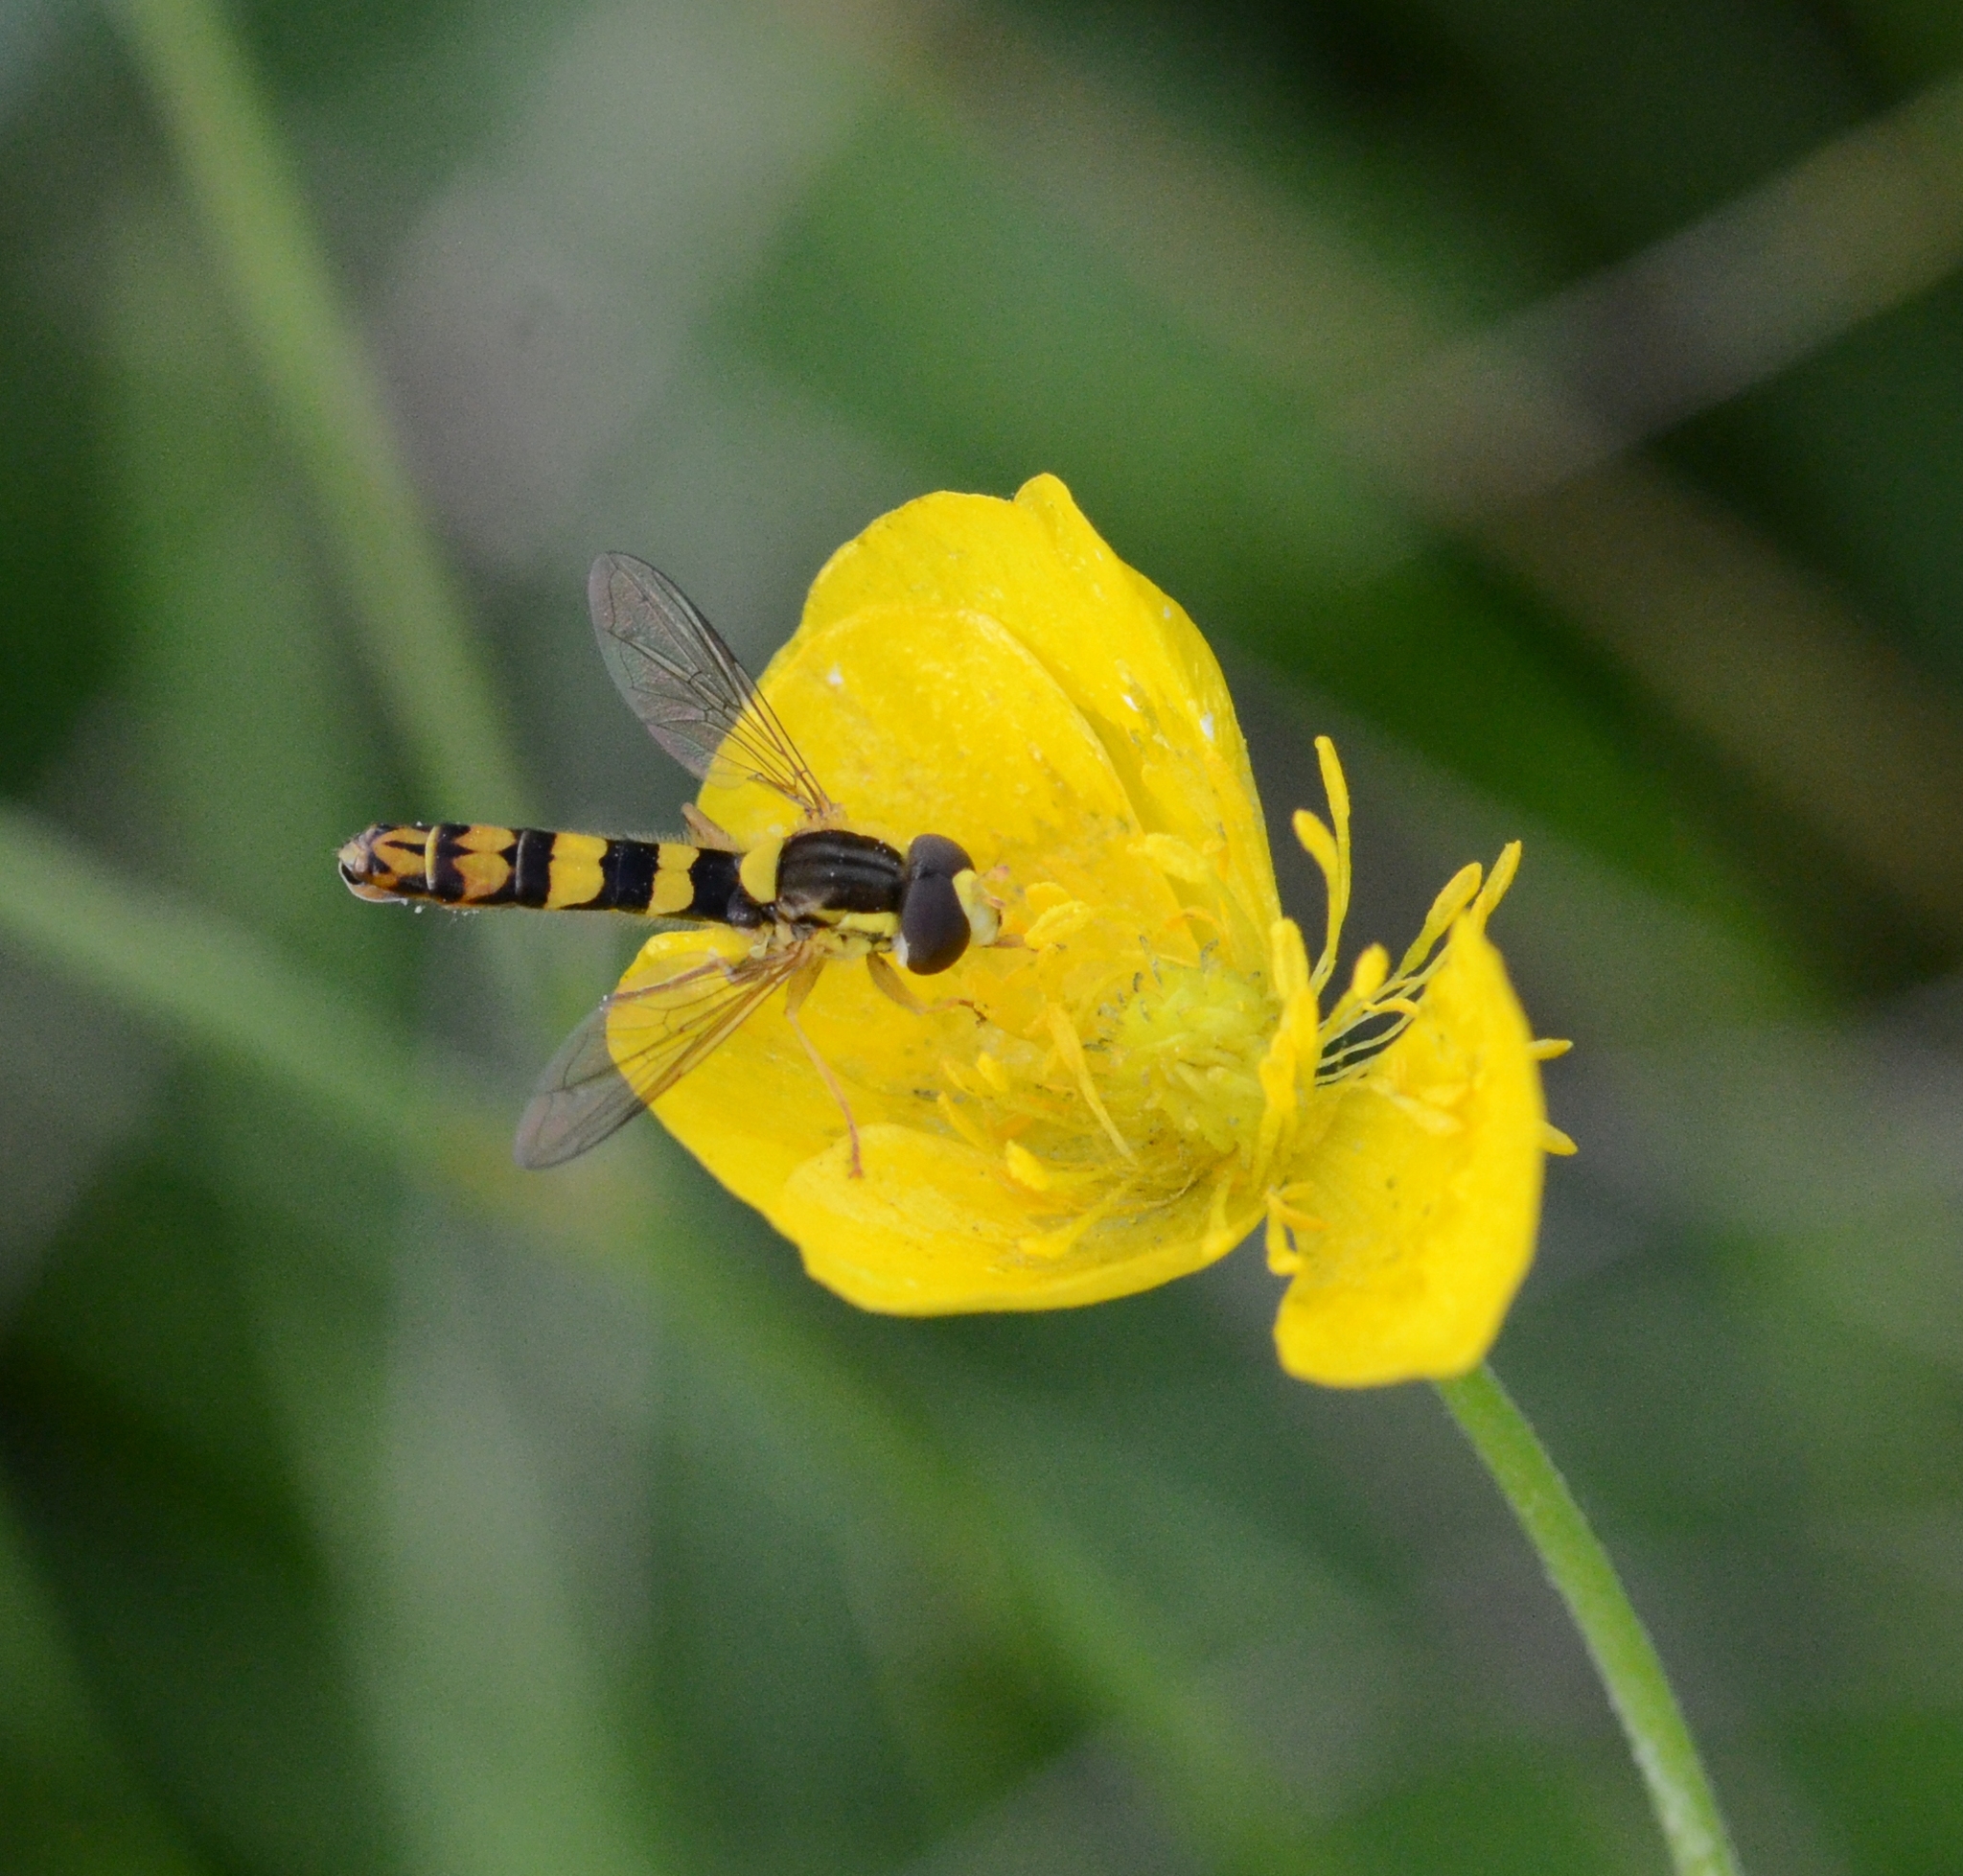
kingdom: Animalia
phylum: Arthropoda
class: Insecta
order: Diptera
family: Syrphidae
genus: Sphaerophoria
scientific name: Sphaerophoria scripta
